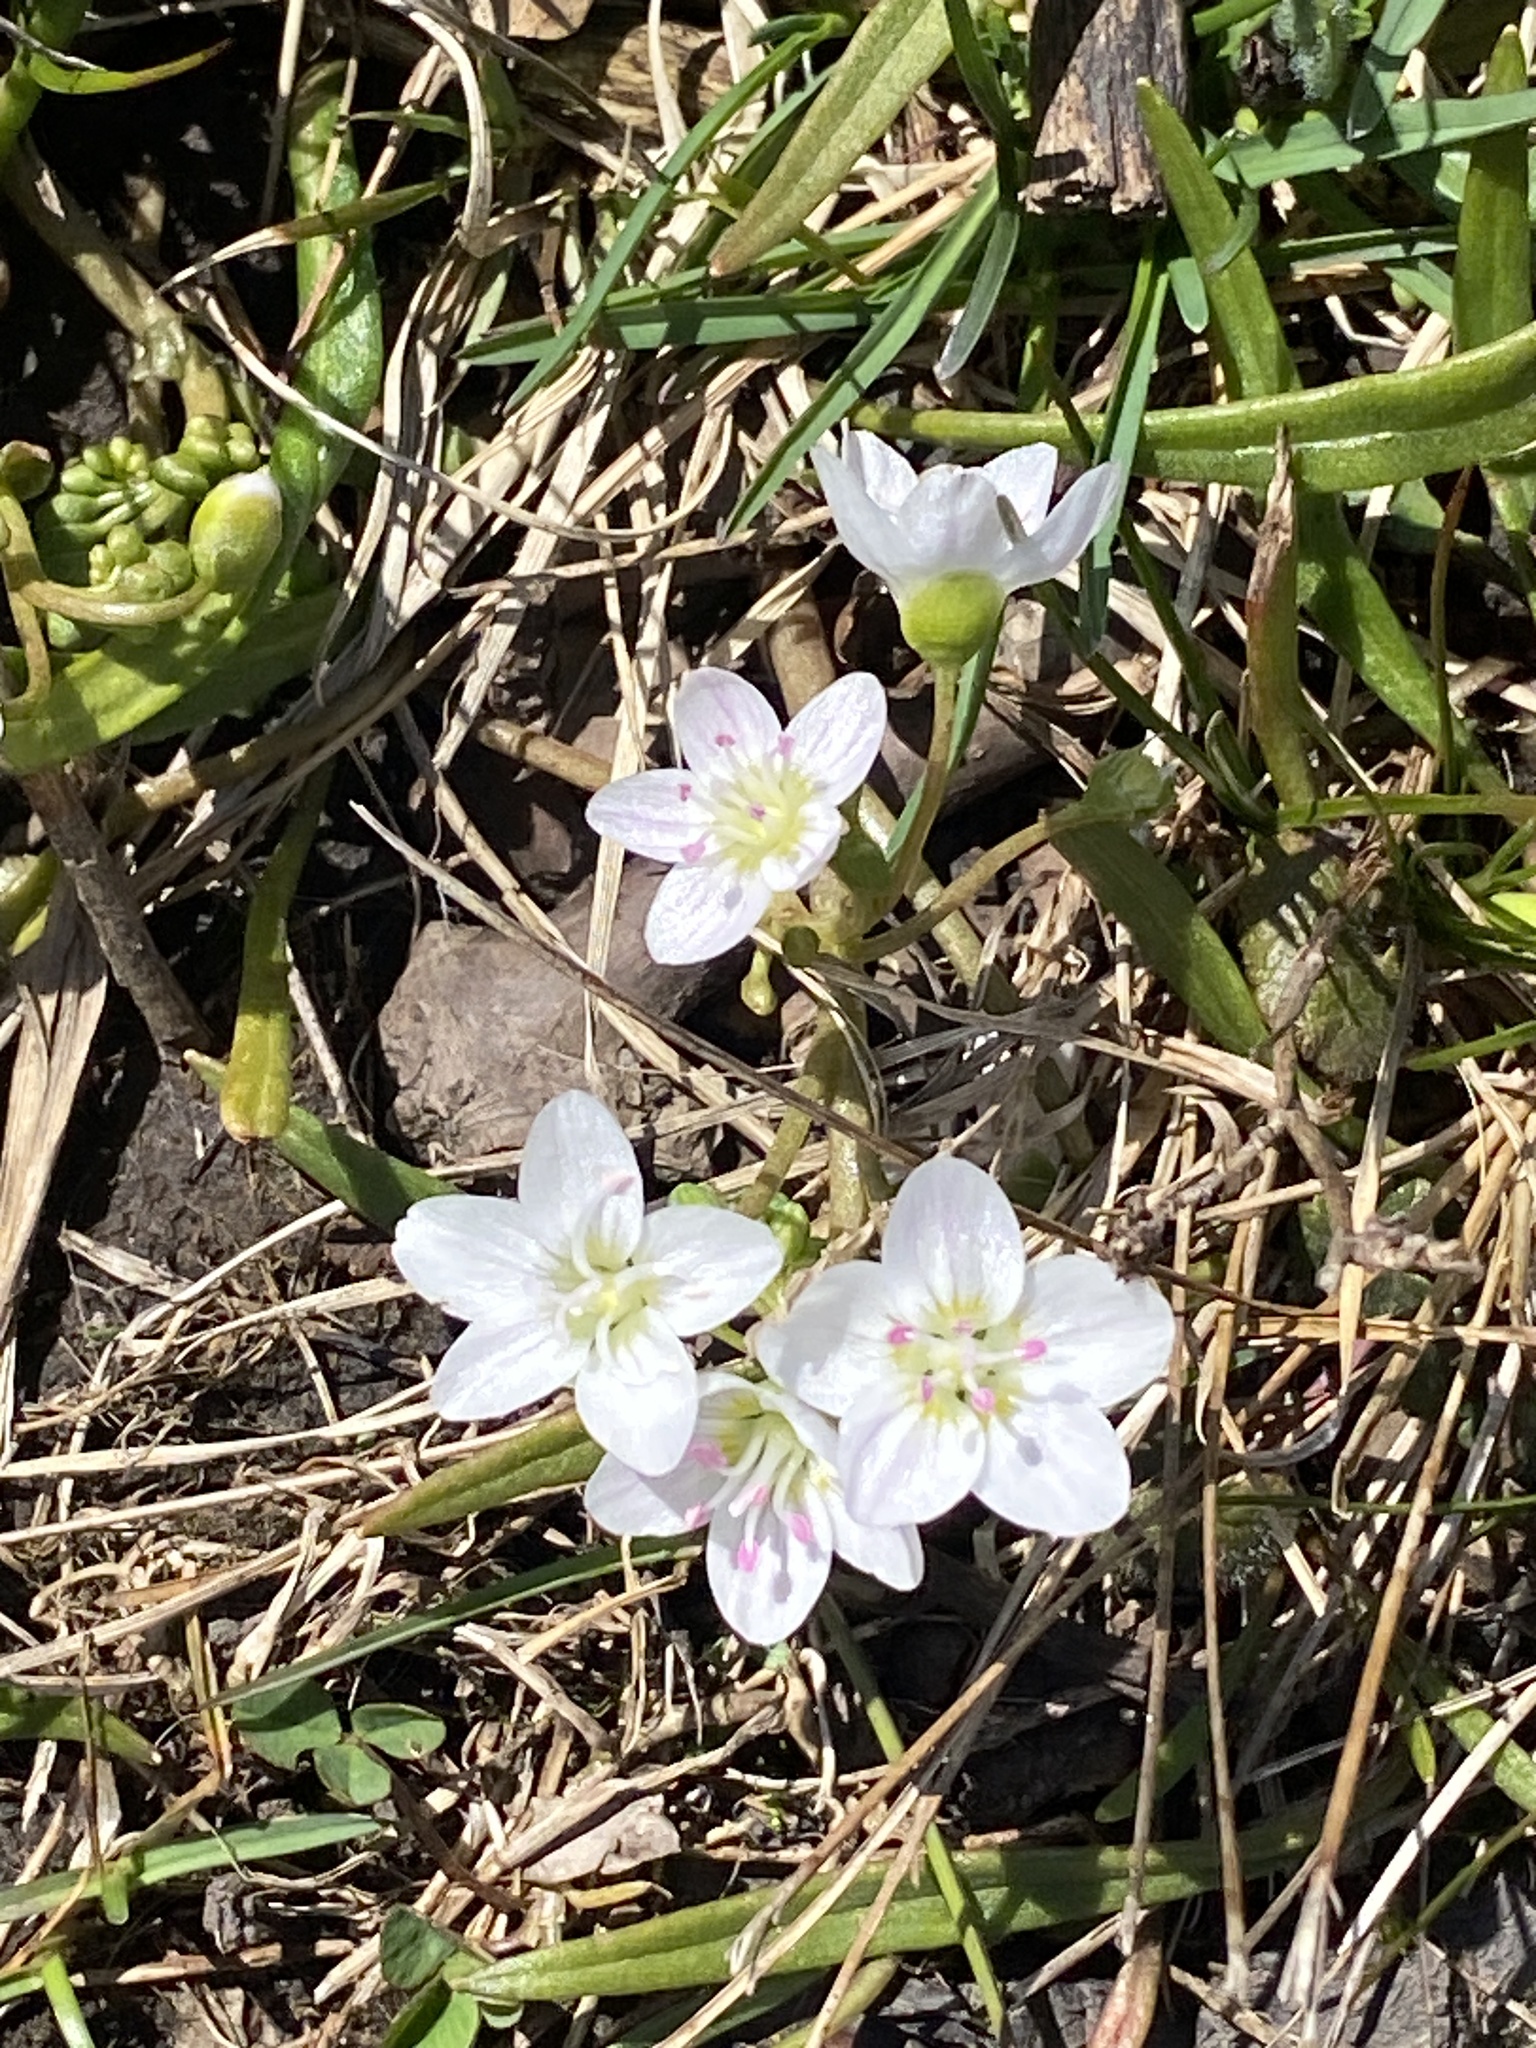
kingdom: Plantae
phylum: Tracheophyta
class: Magnoliopsida
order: Caryophyllales
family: Montiaceae
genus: Claytonia
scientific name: Claytonia virginica
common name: Virginia springbeauty
